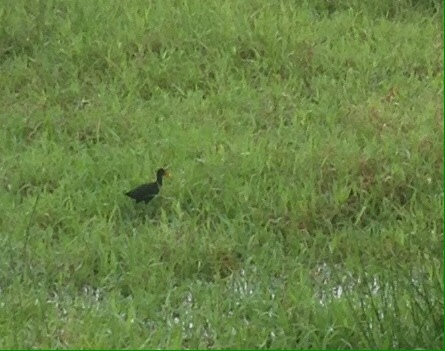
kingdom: Animalia
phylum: Chordata
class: Aves
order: Charadriiformes
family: Jacanidae
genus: Jacana
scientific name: Jacana jacana
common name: Wattled jacana
